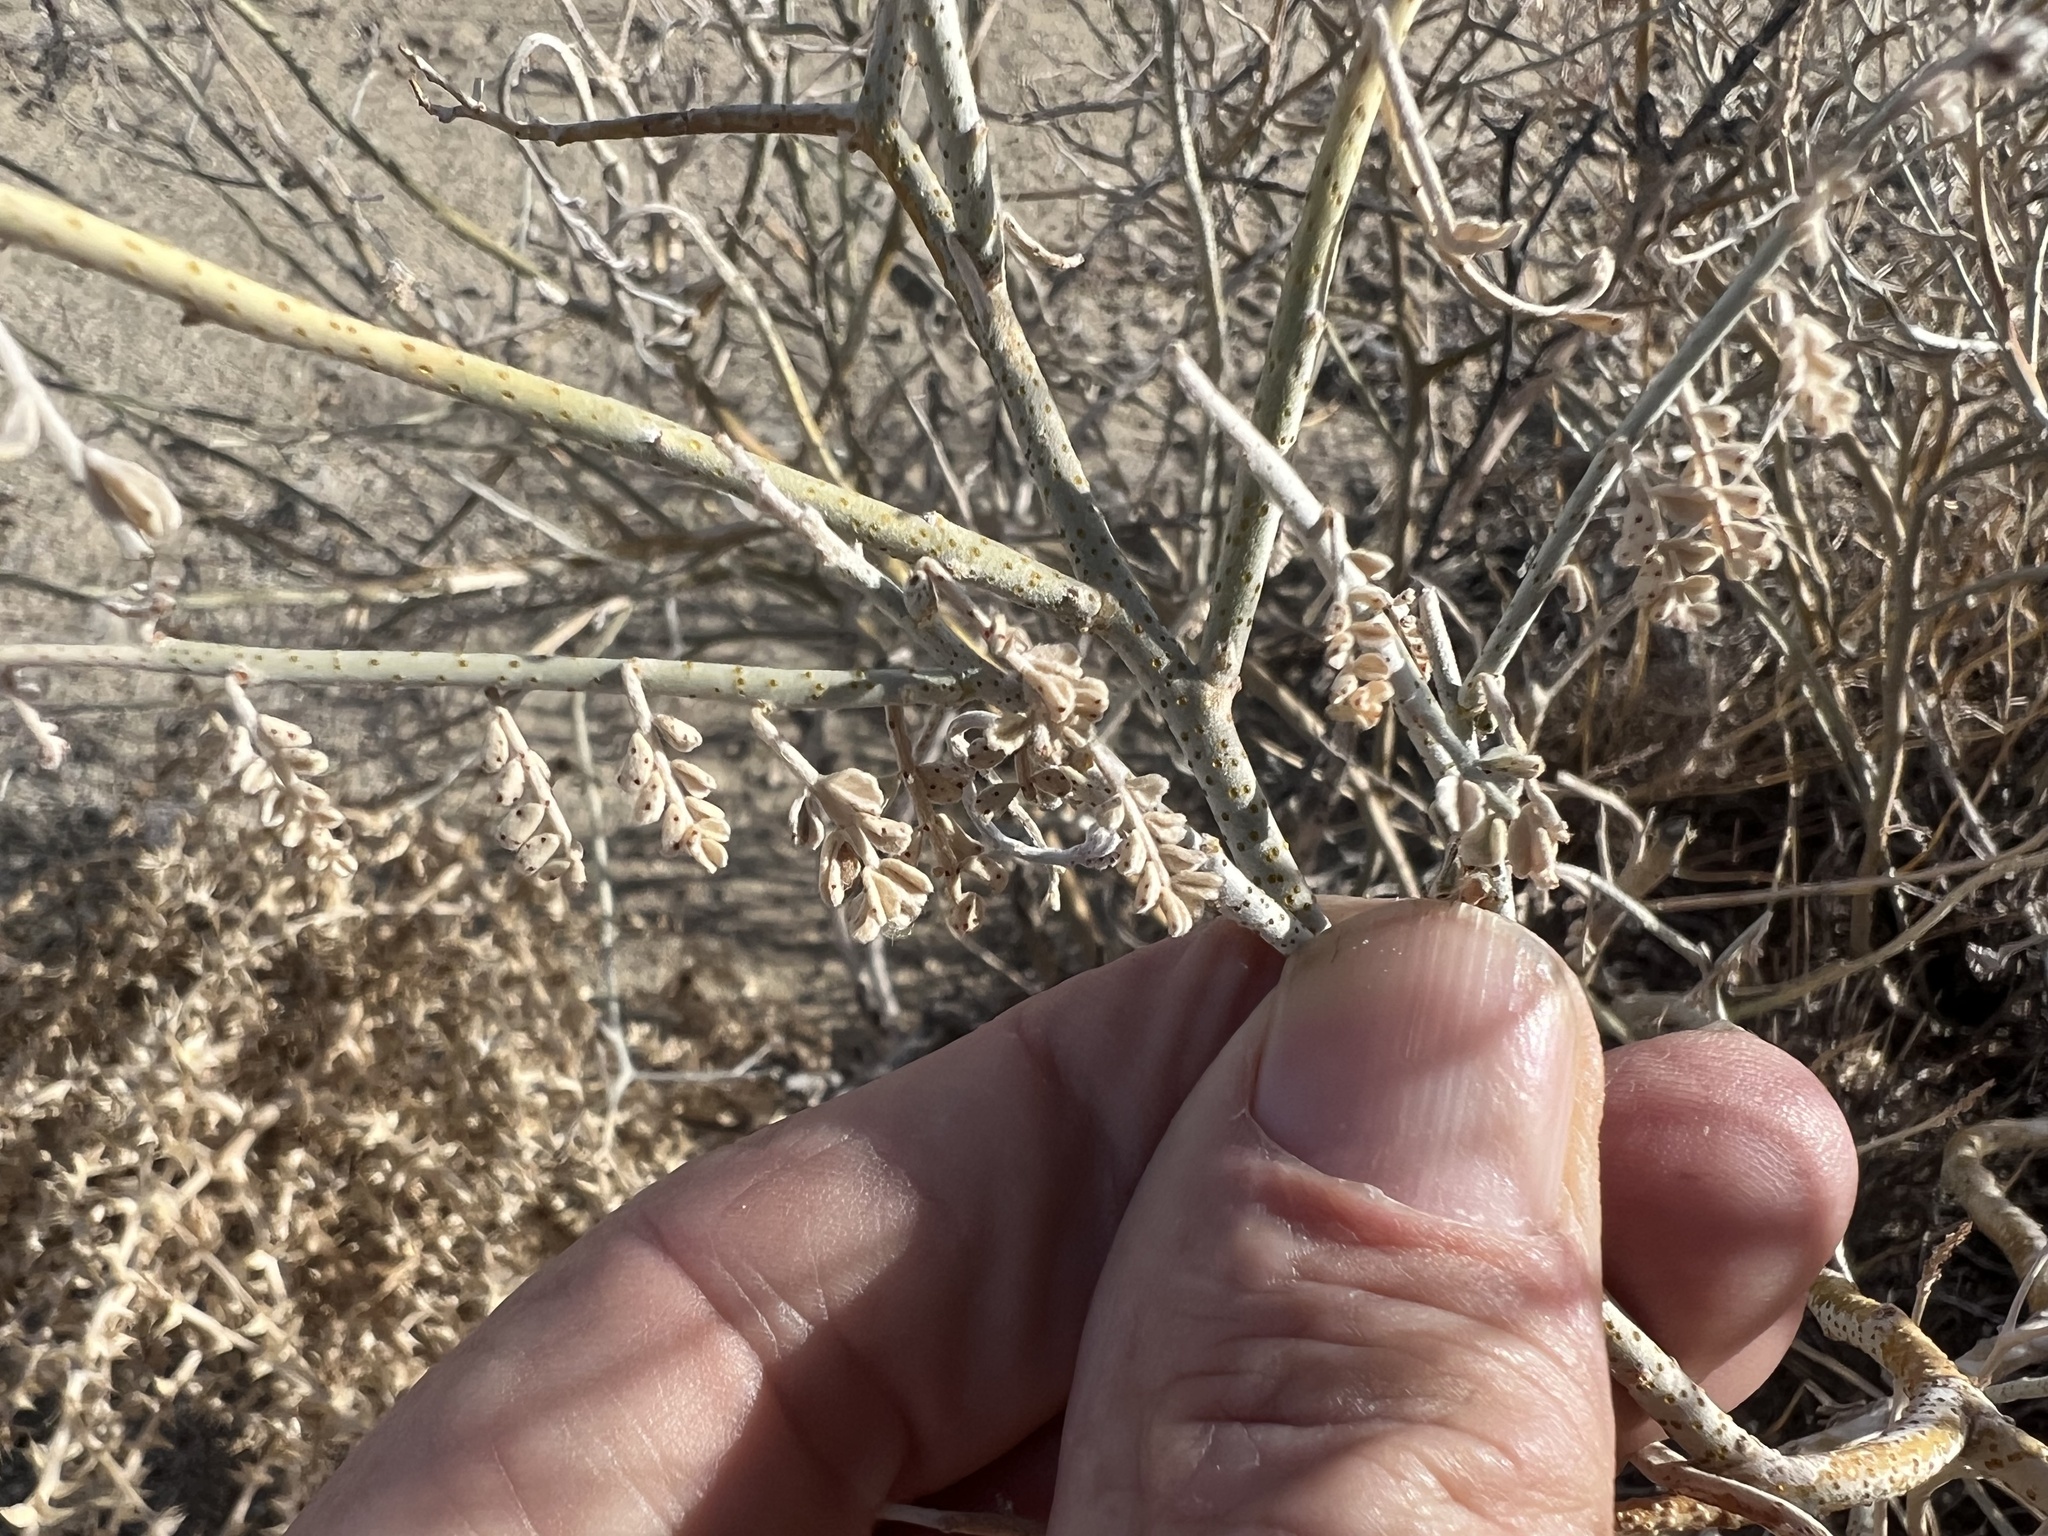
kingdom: Plantae
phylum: Tracheophyta
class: Magnoliopsida
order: Fabales
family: Fabaceae
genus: Psorothamnus
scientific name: Psorothamnus polydenius
